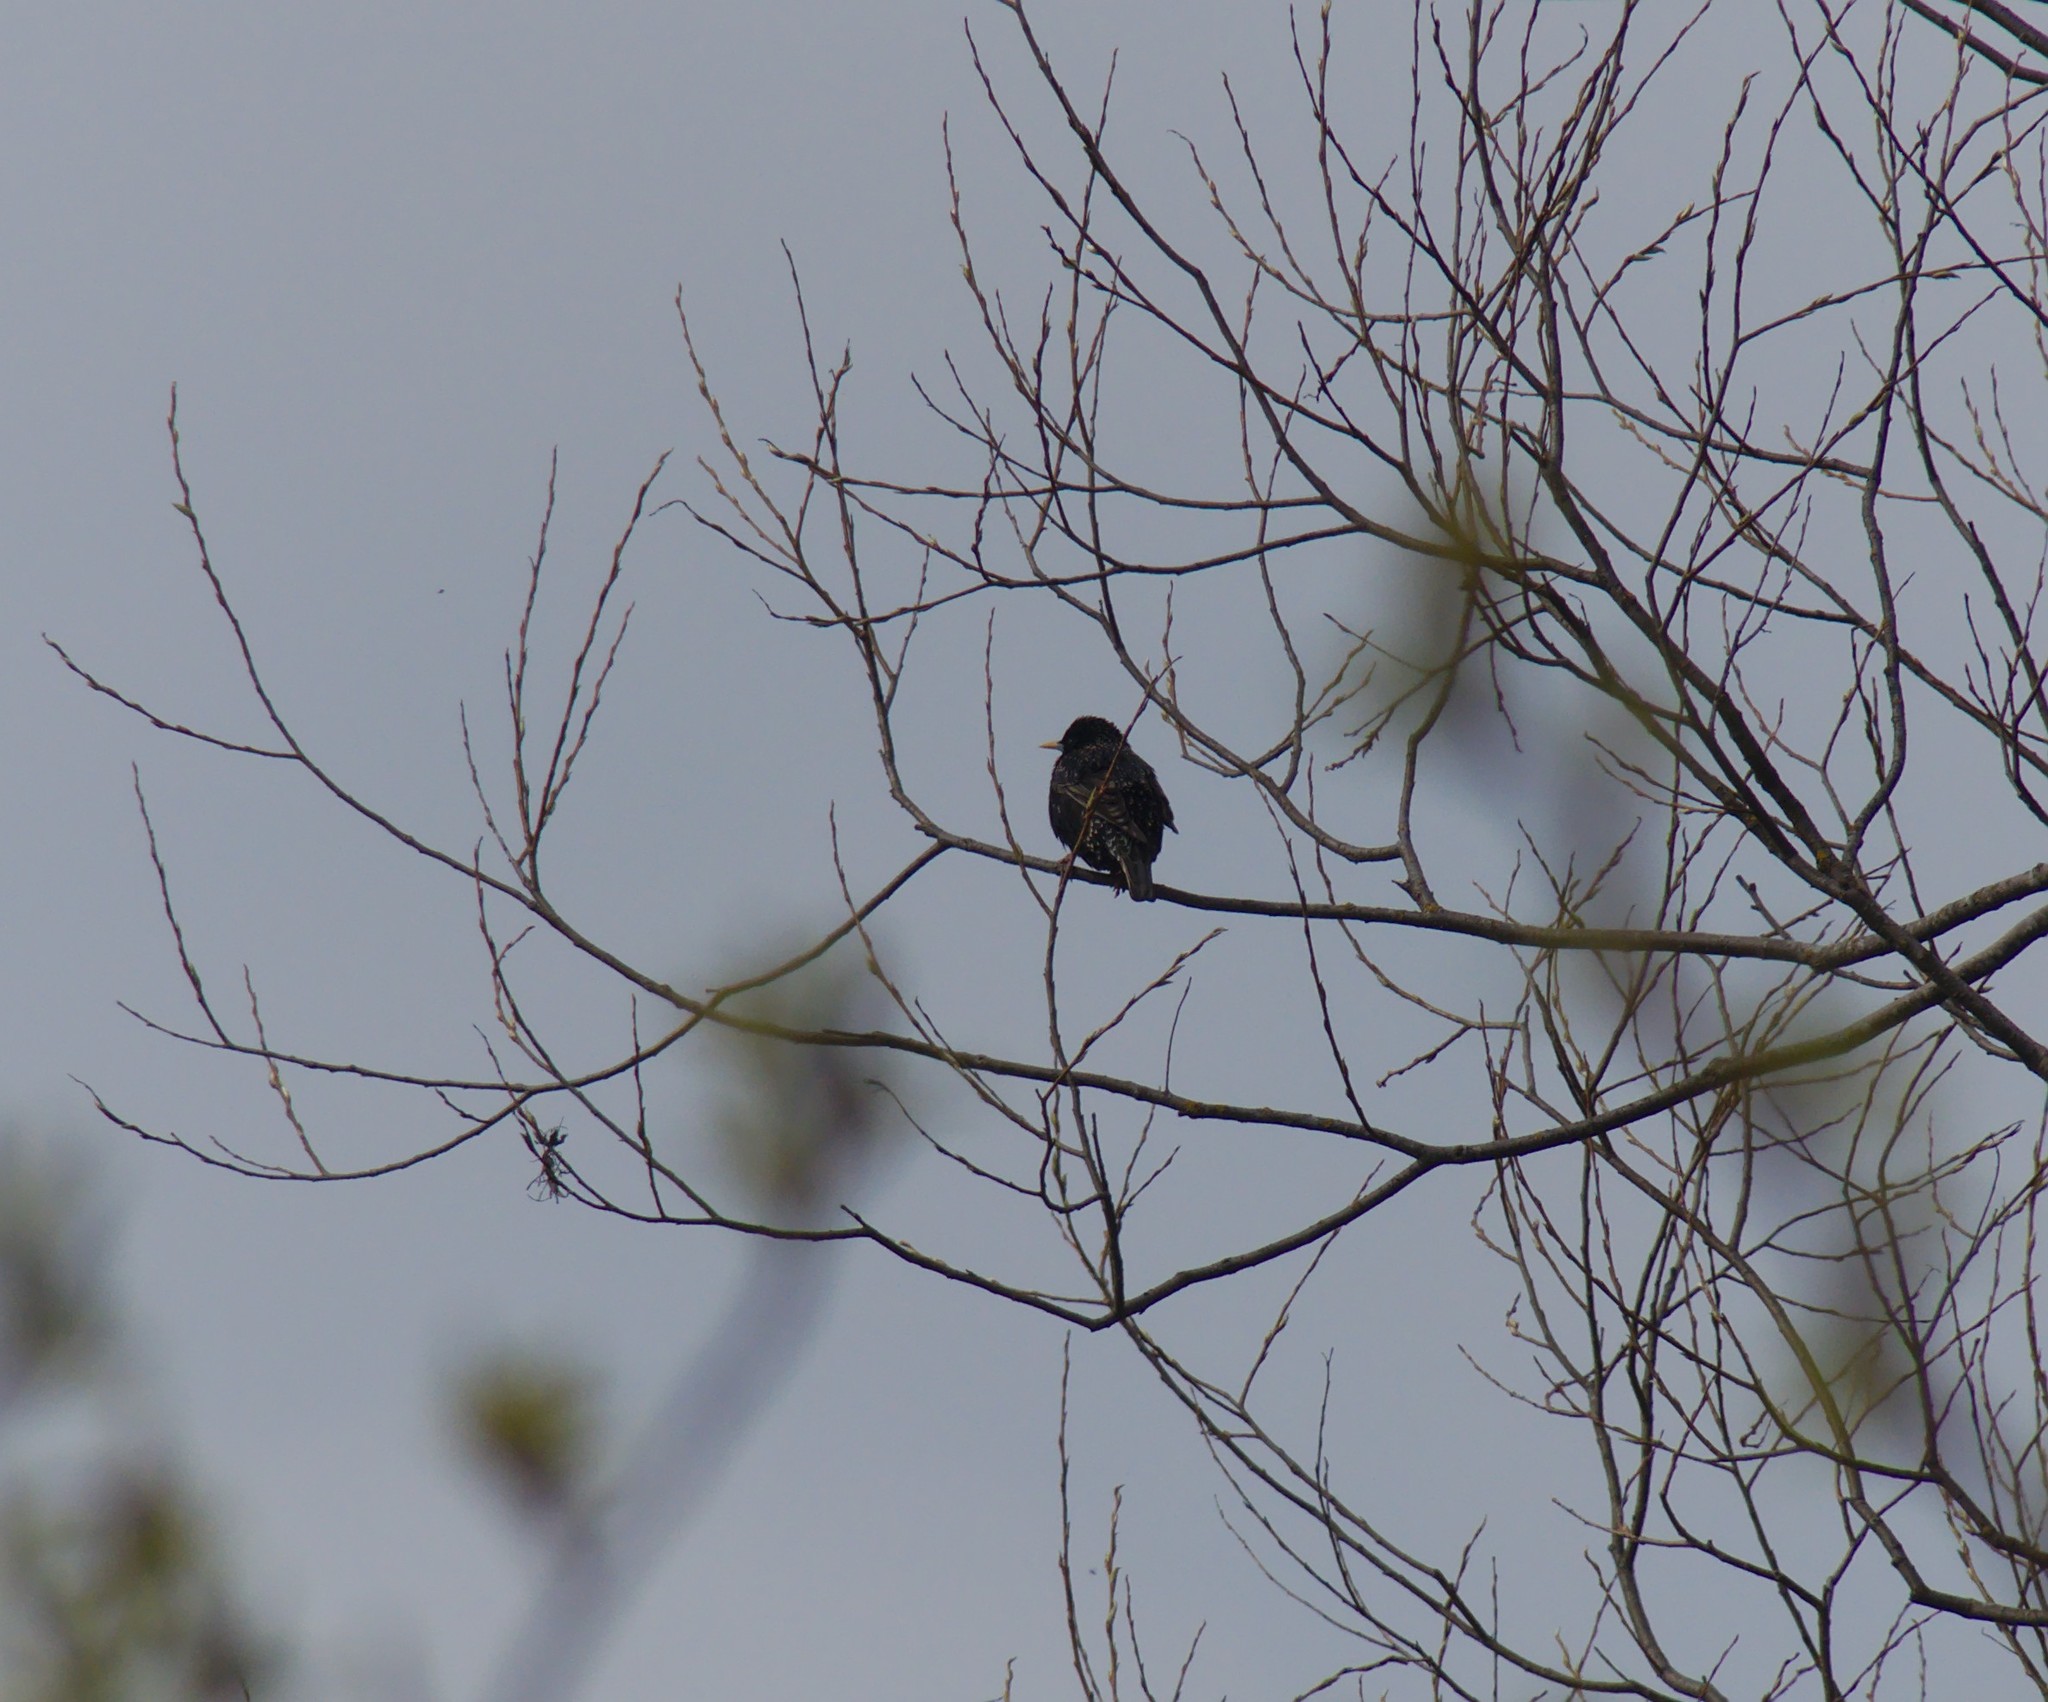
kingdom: Animalia
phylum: Chordata
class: Aves
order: Passeriformes
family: Sturnidae
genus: Sturnus
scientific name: Sturnus vulgaris
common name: Common starling
